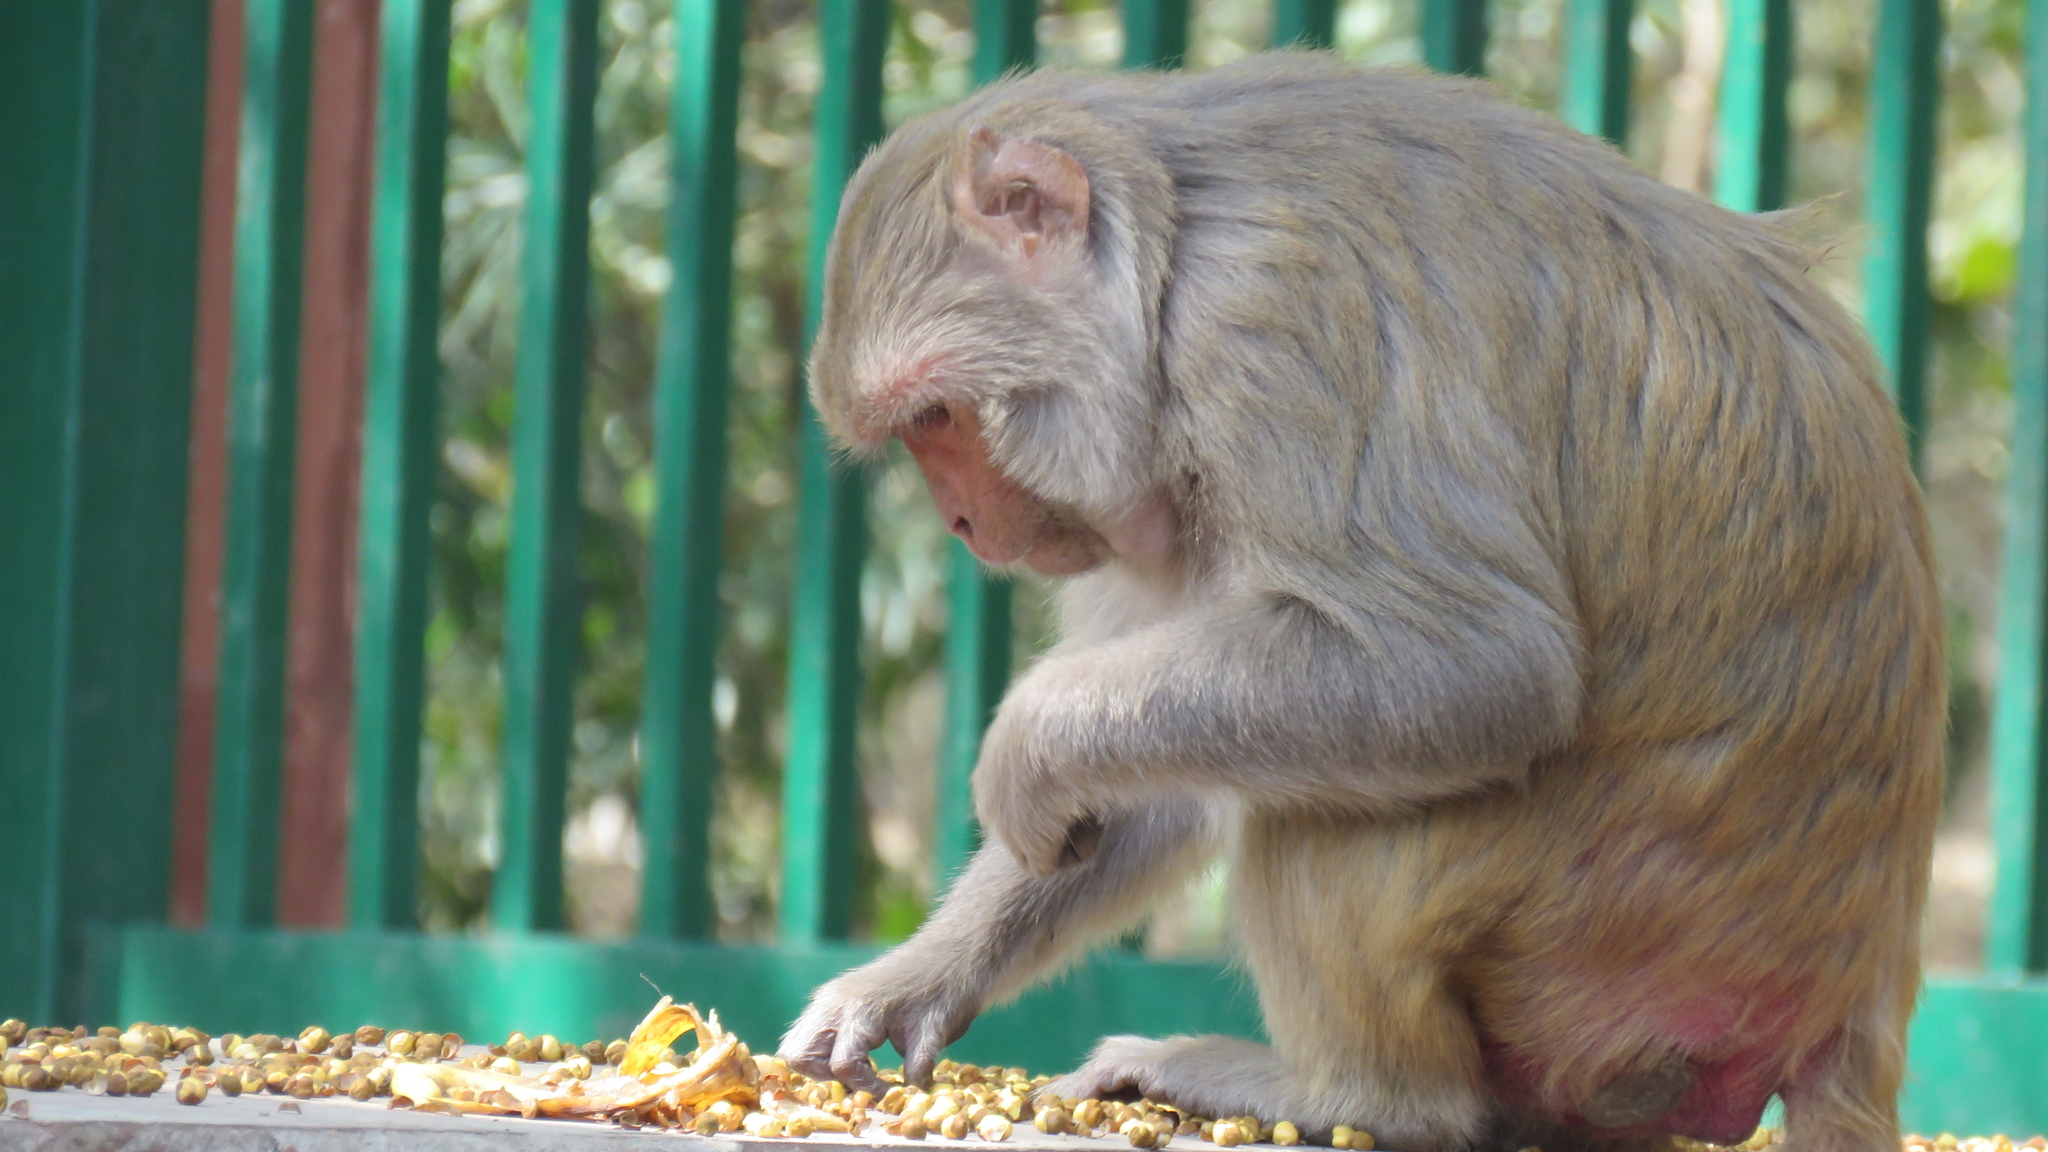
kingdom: Animalia
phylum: Chordata
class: Mammalia
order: Primates
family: Cercopithecidae
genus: Macaca
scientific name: Macaca mulatta
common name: Rhesus monkey
